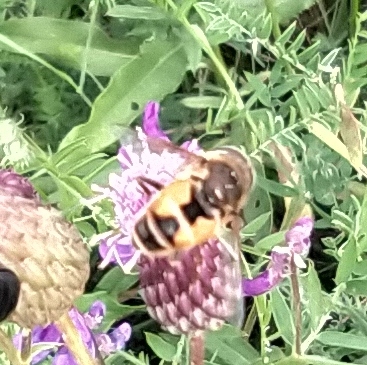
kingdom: Animalia
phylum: Arthropoda
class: Insecta
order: Diptera
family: Syrphidae
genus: Eristalis
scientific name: Eristalis
